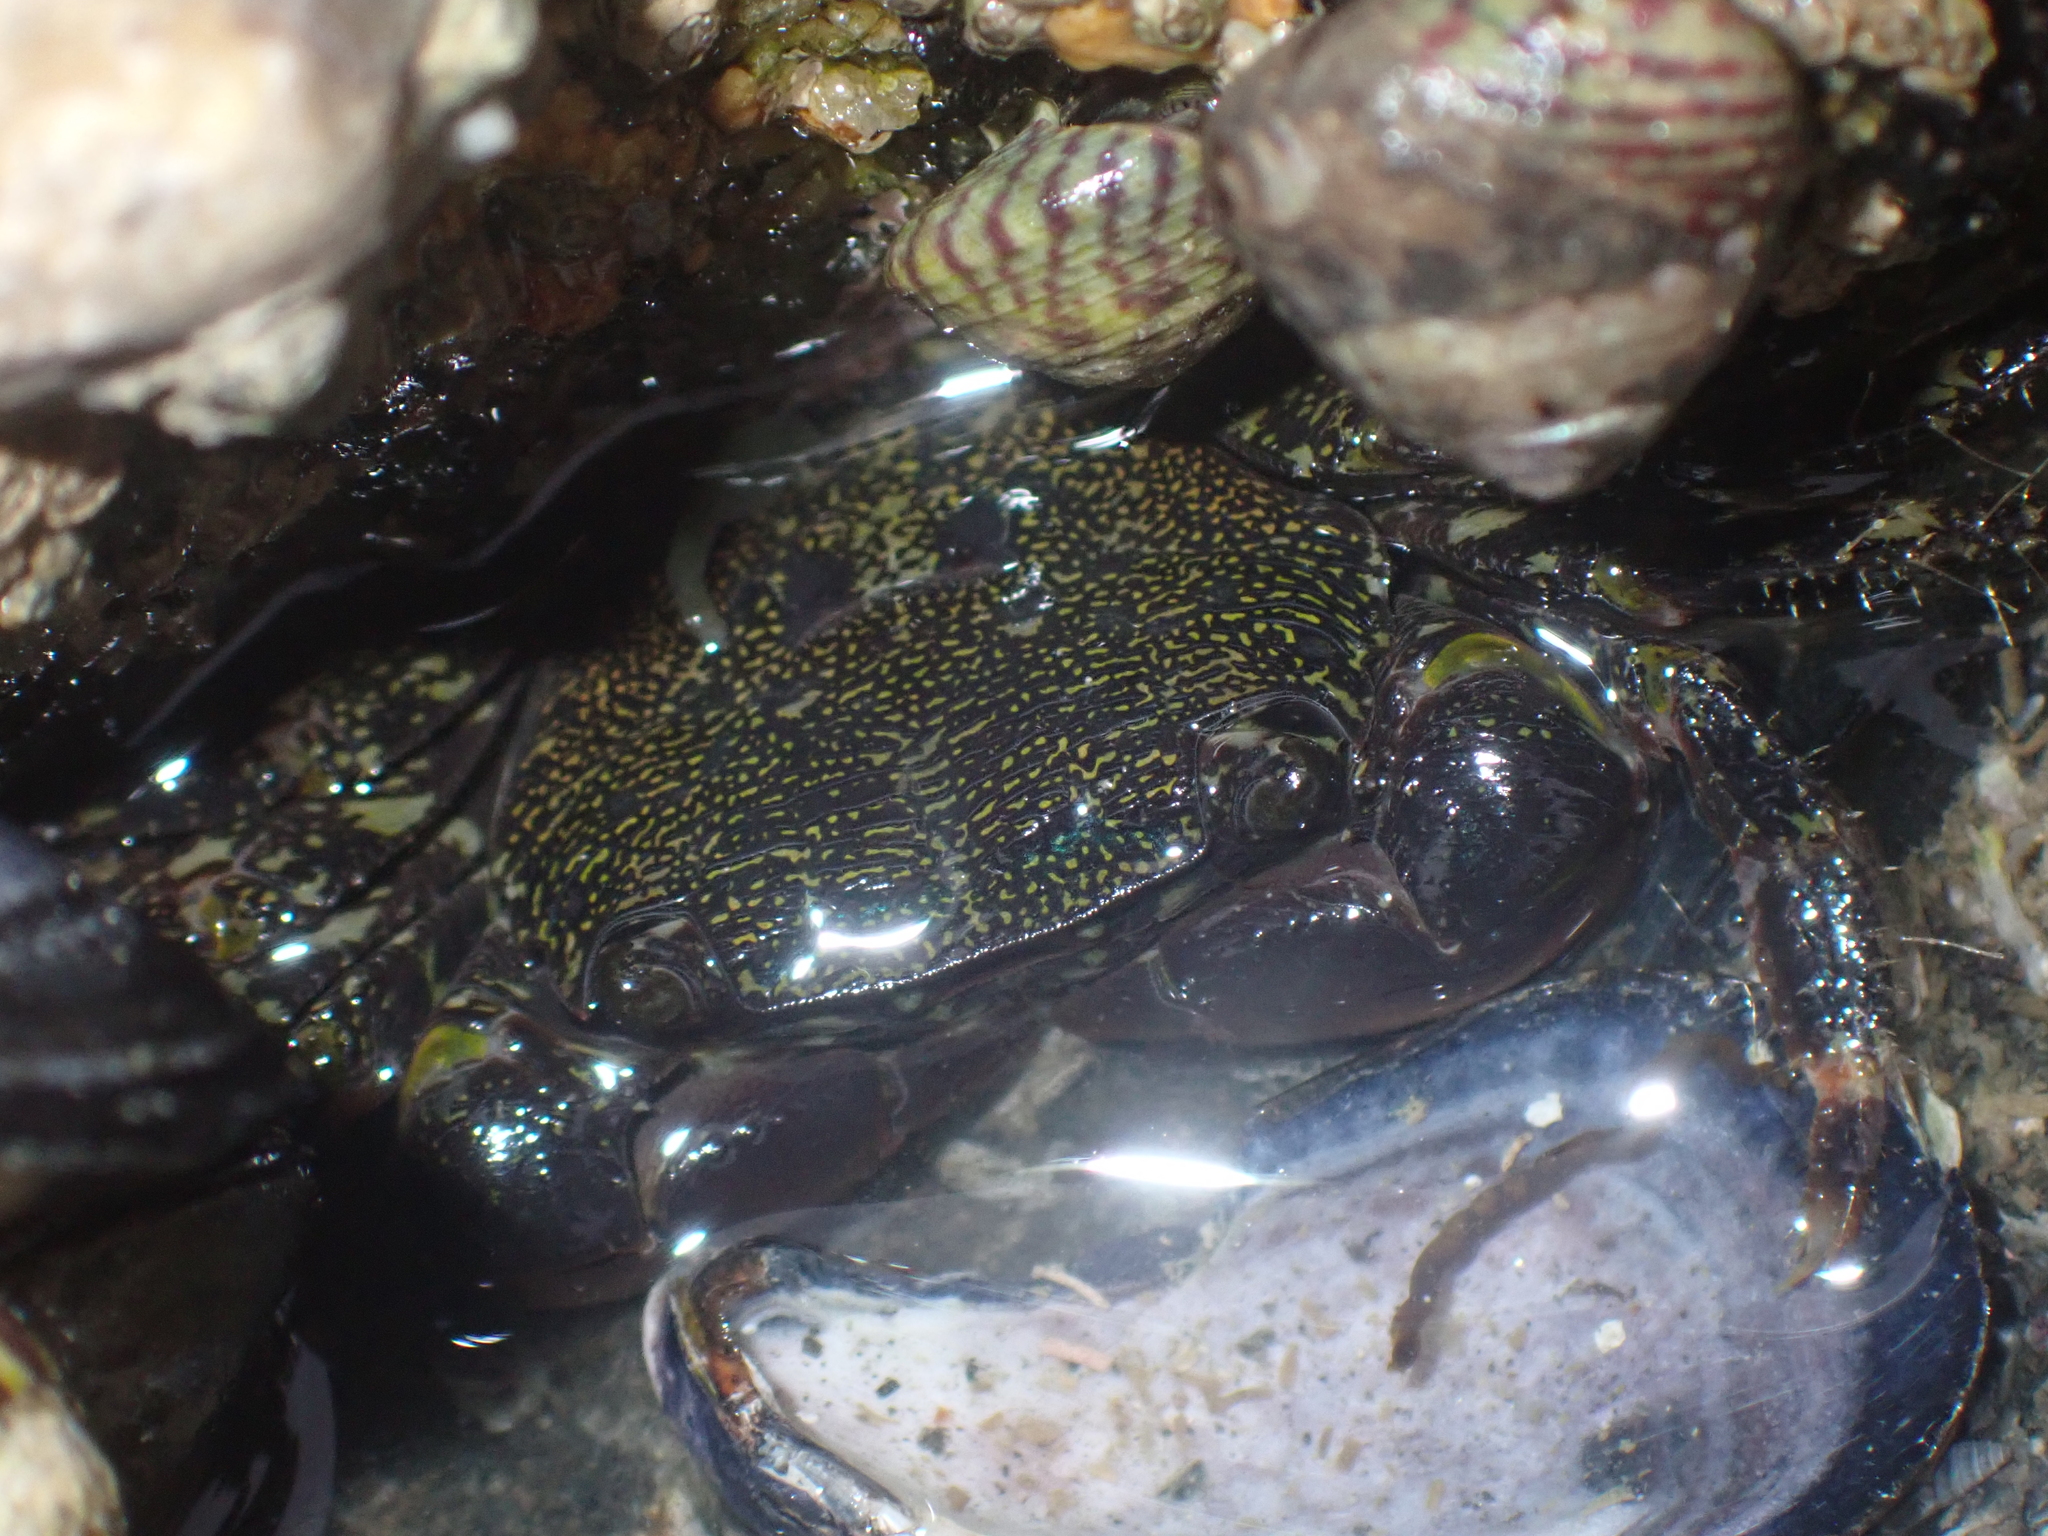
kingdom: Animalia
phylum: Arthropoda
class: Malacostraca
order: Decapoda
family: Grapsidae
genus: Pachygrapsus
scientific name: Pachygrapsus marmoratus
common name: Marbled rock crab
